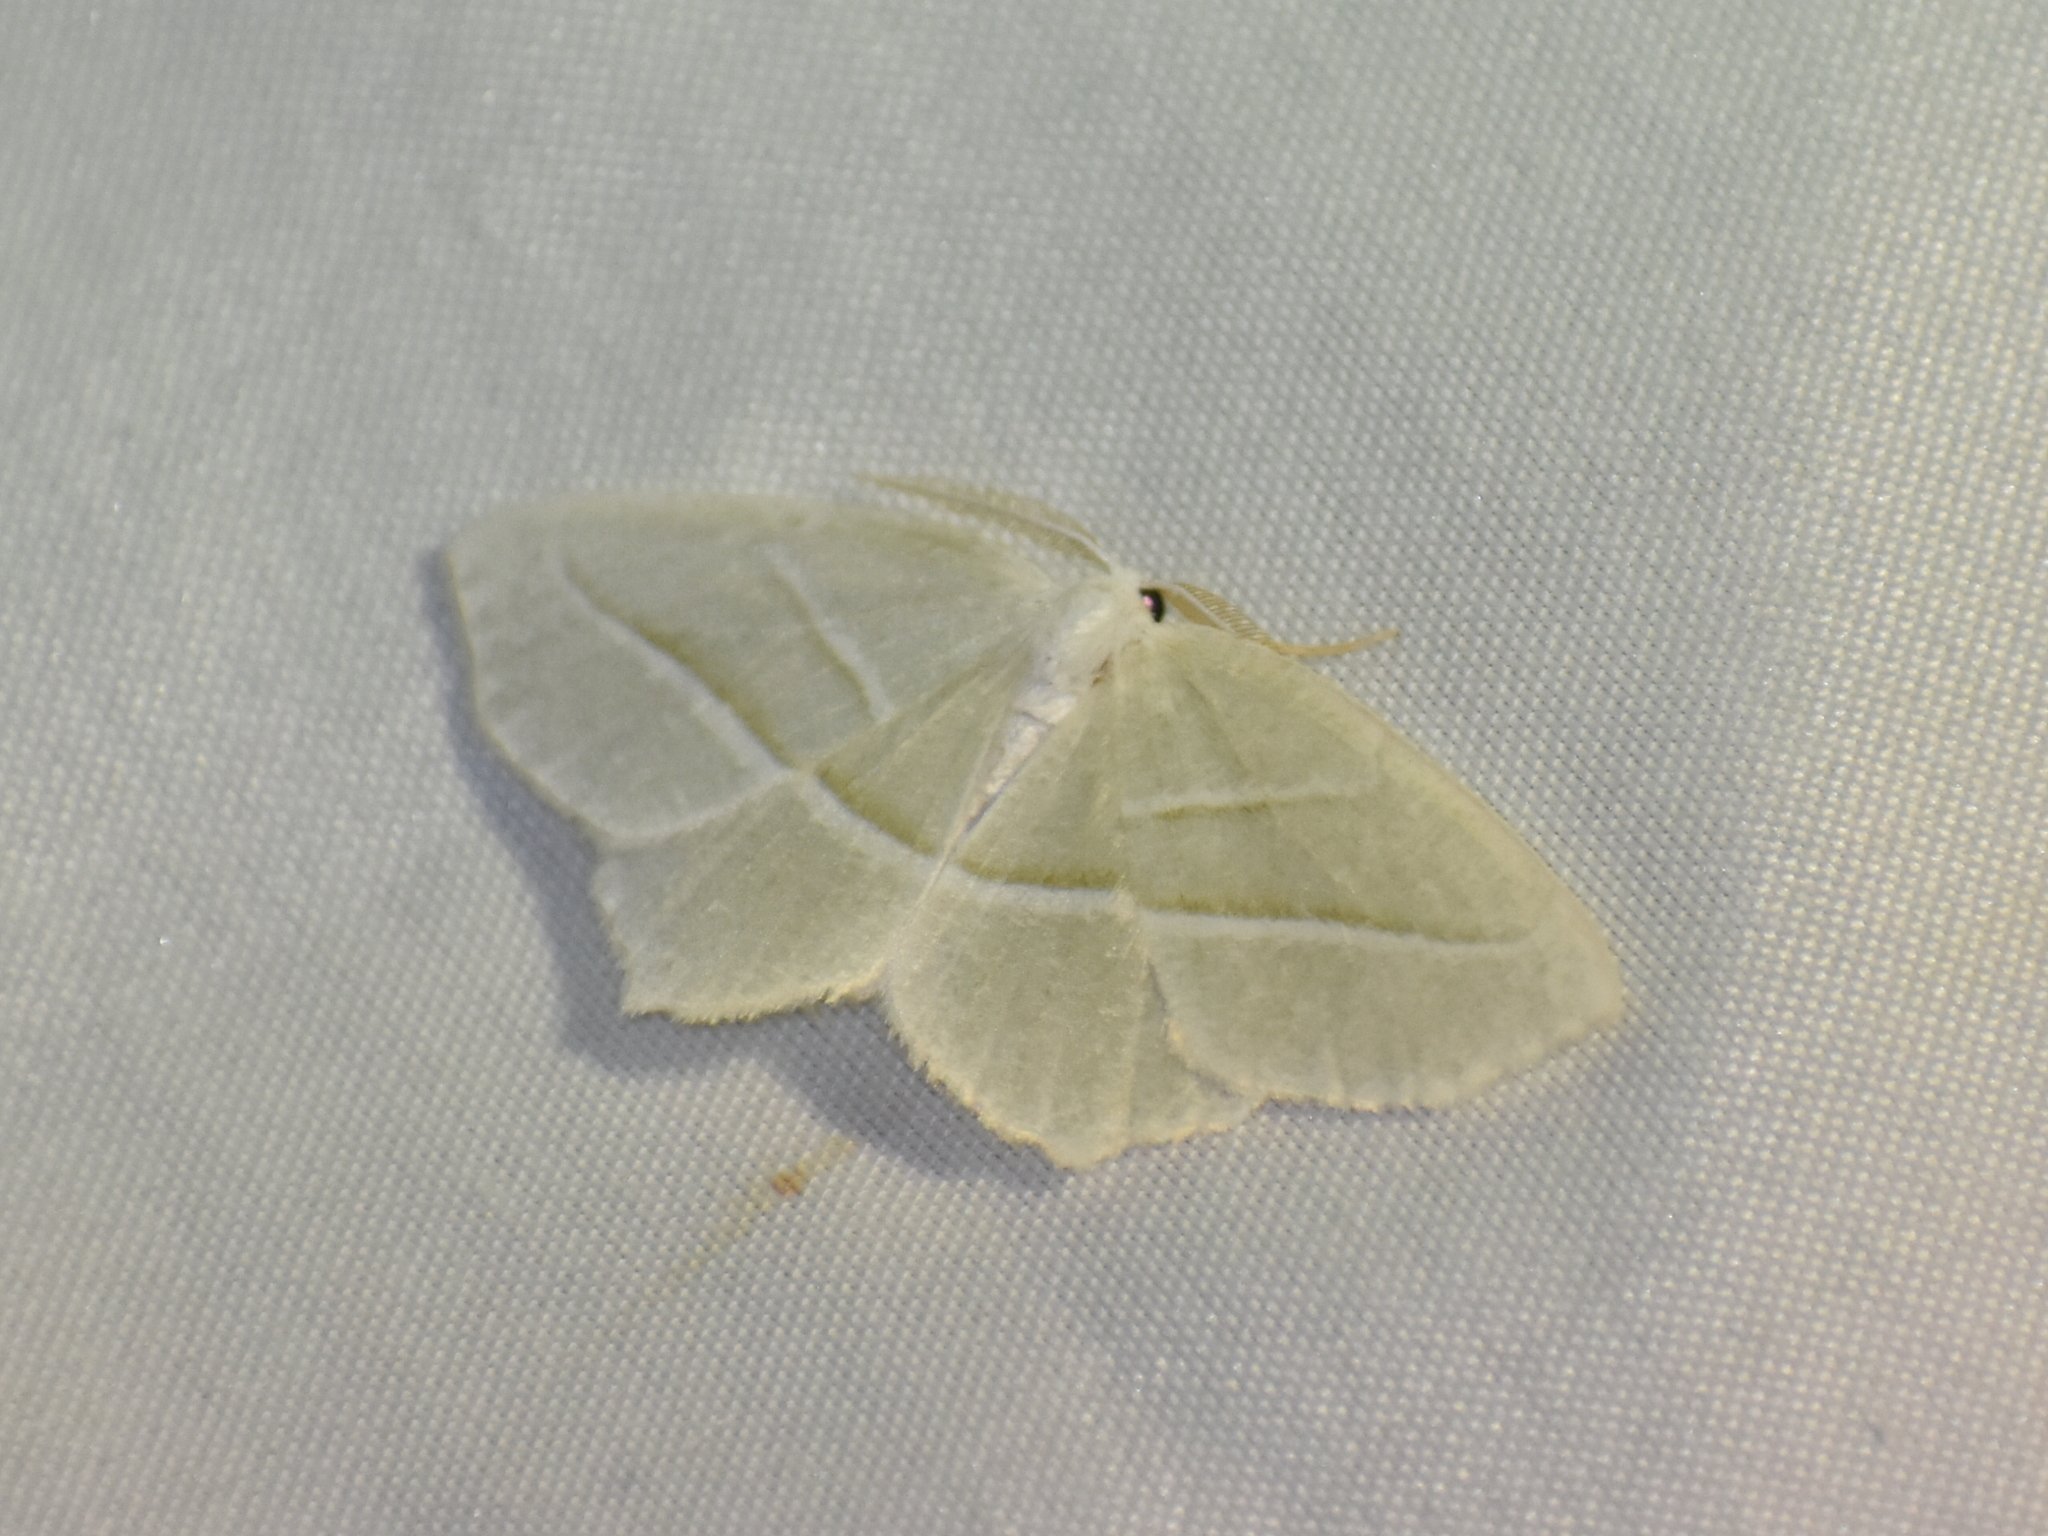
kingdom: Animalia
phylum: Arthropoda
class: Insecta
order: Lepidoptera
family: Geometridae
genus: Campaea
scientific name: Campaea perlata
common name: Fringed looper
